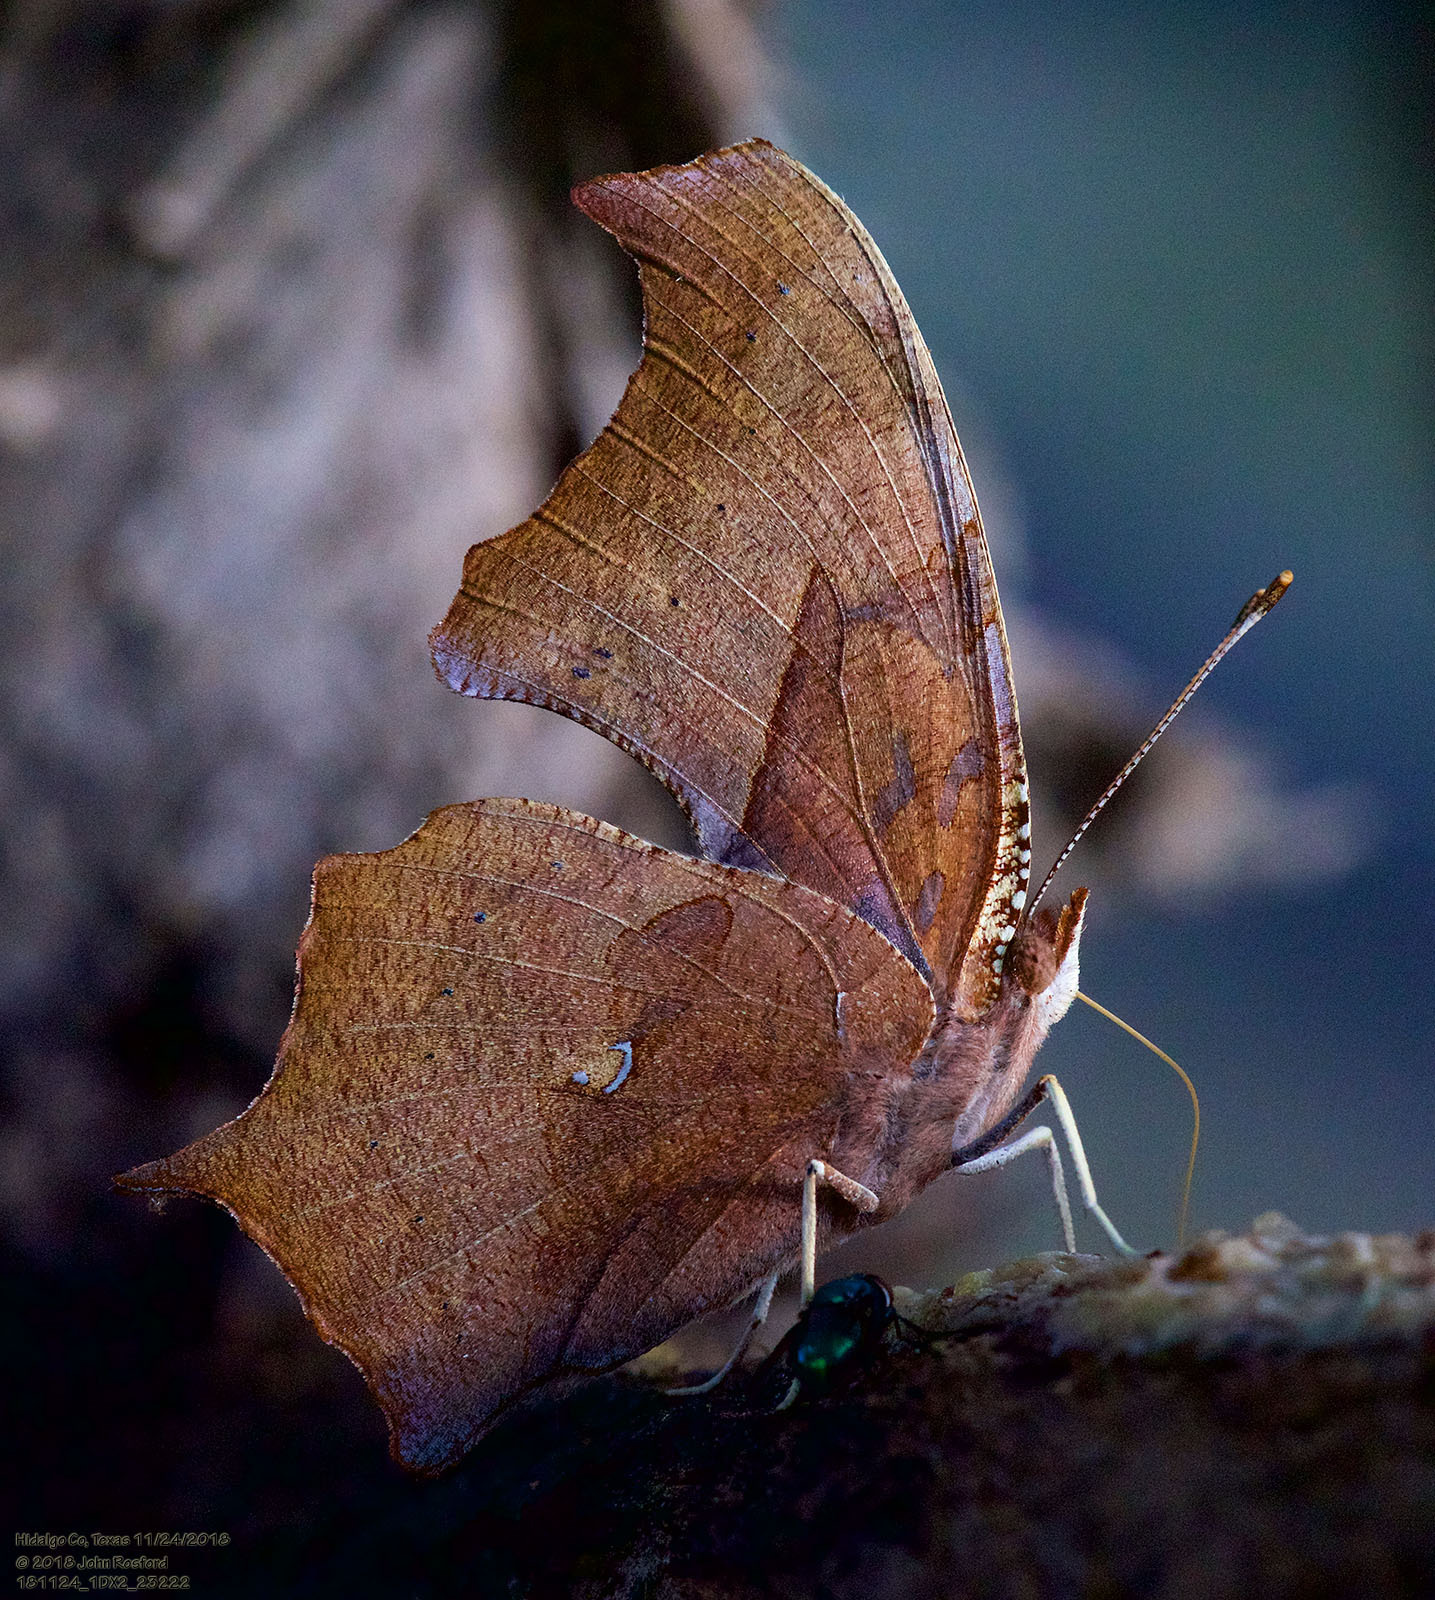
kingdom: Animalia
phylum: Arthropoda
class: Insecta
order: Lepidoptera
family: Nymphalidae
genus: Polygonia
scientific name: Polygonia interrogationis
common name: Question mark
